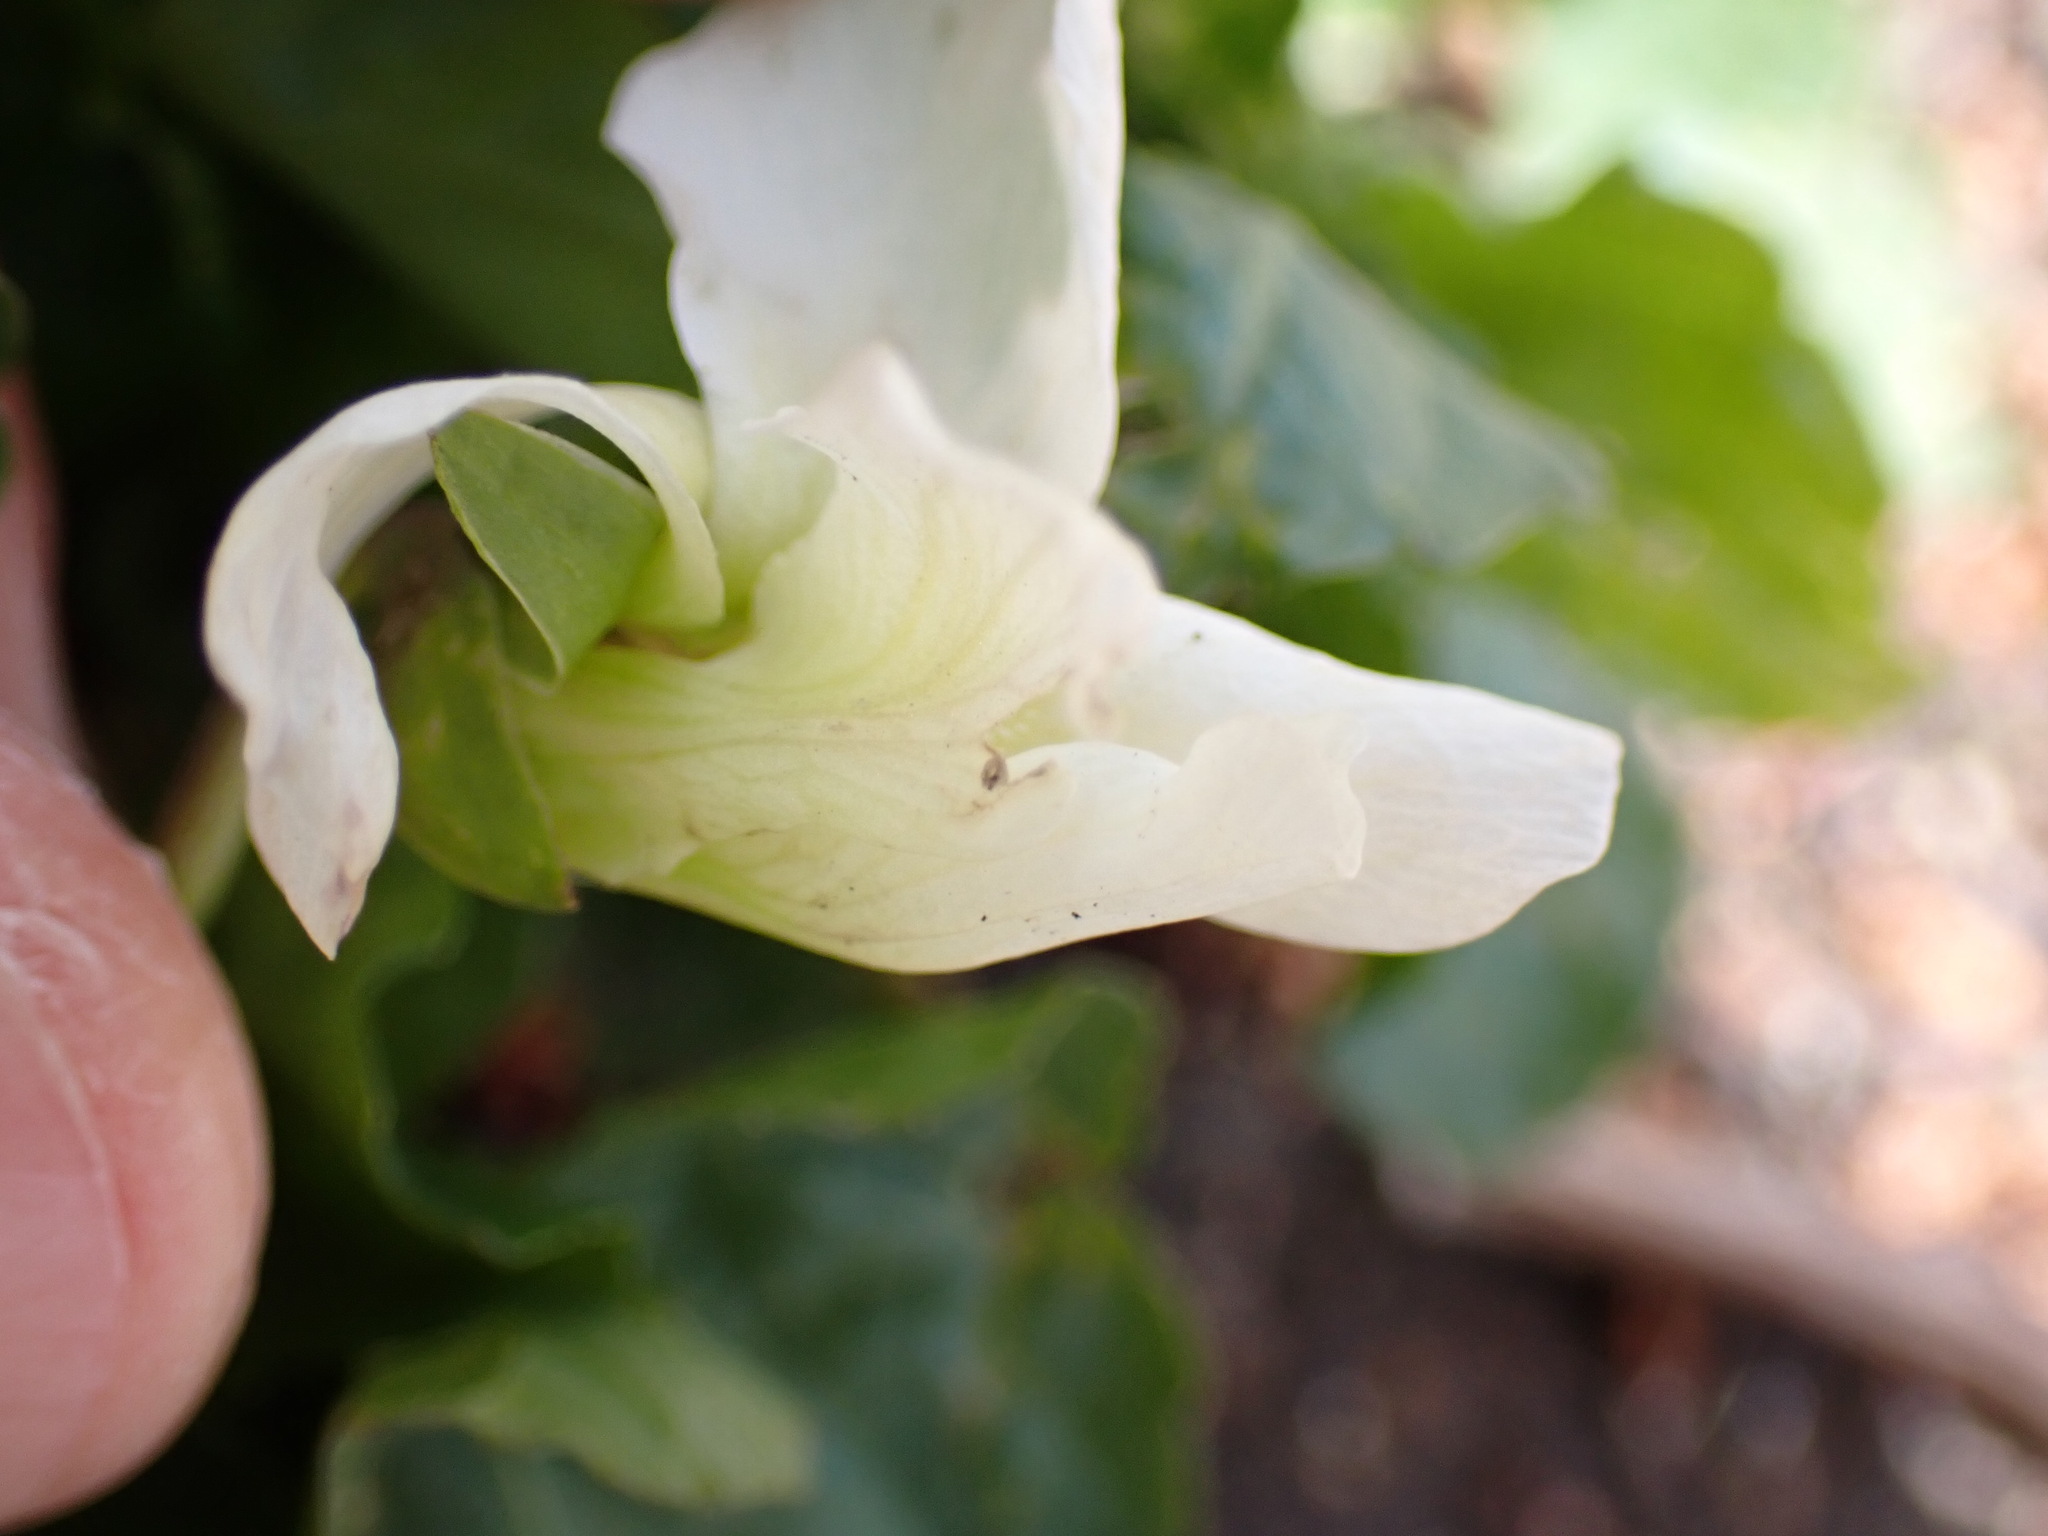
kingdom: Plantae
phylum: Tracheophyta
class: Magnoliopsida
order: Malpighiales
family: Violaceae
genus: Viola
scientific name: Viola sororia
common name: Dooryard violet
